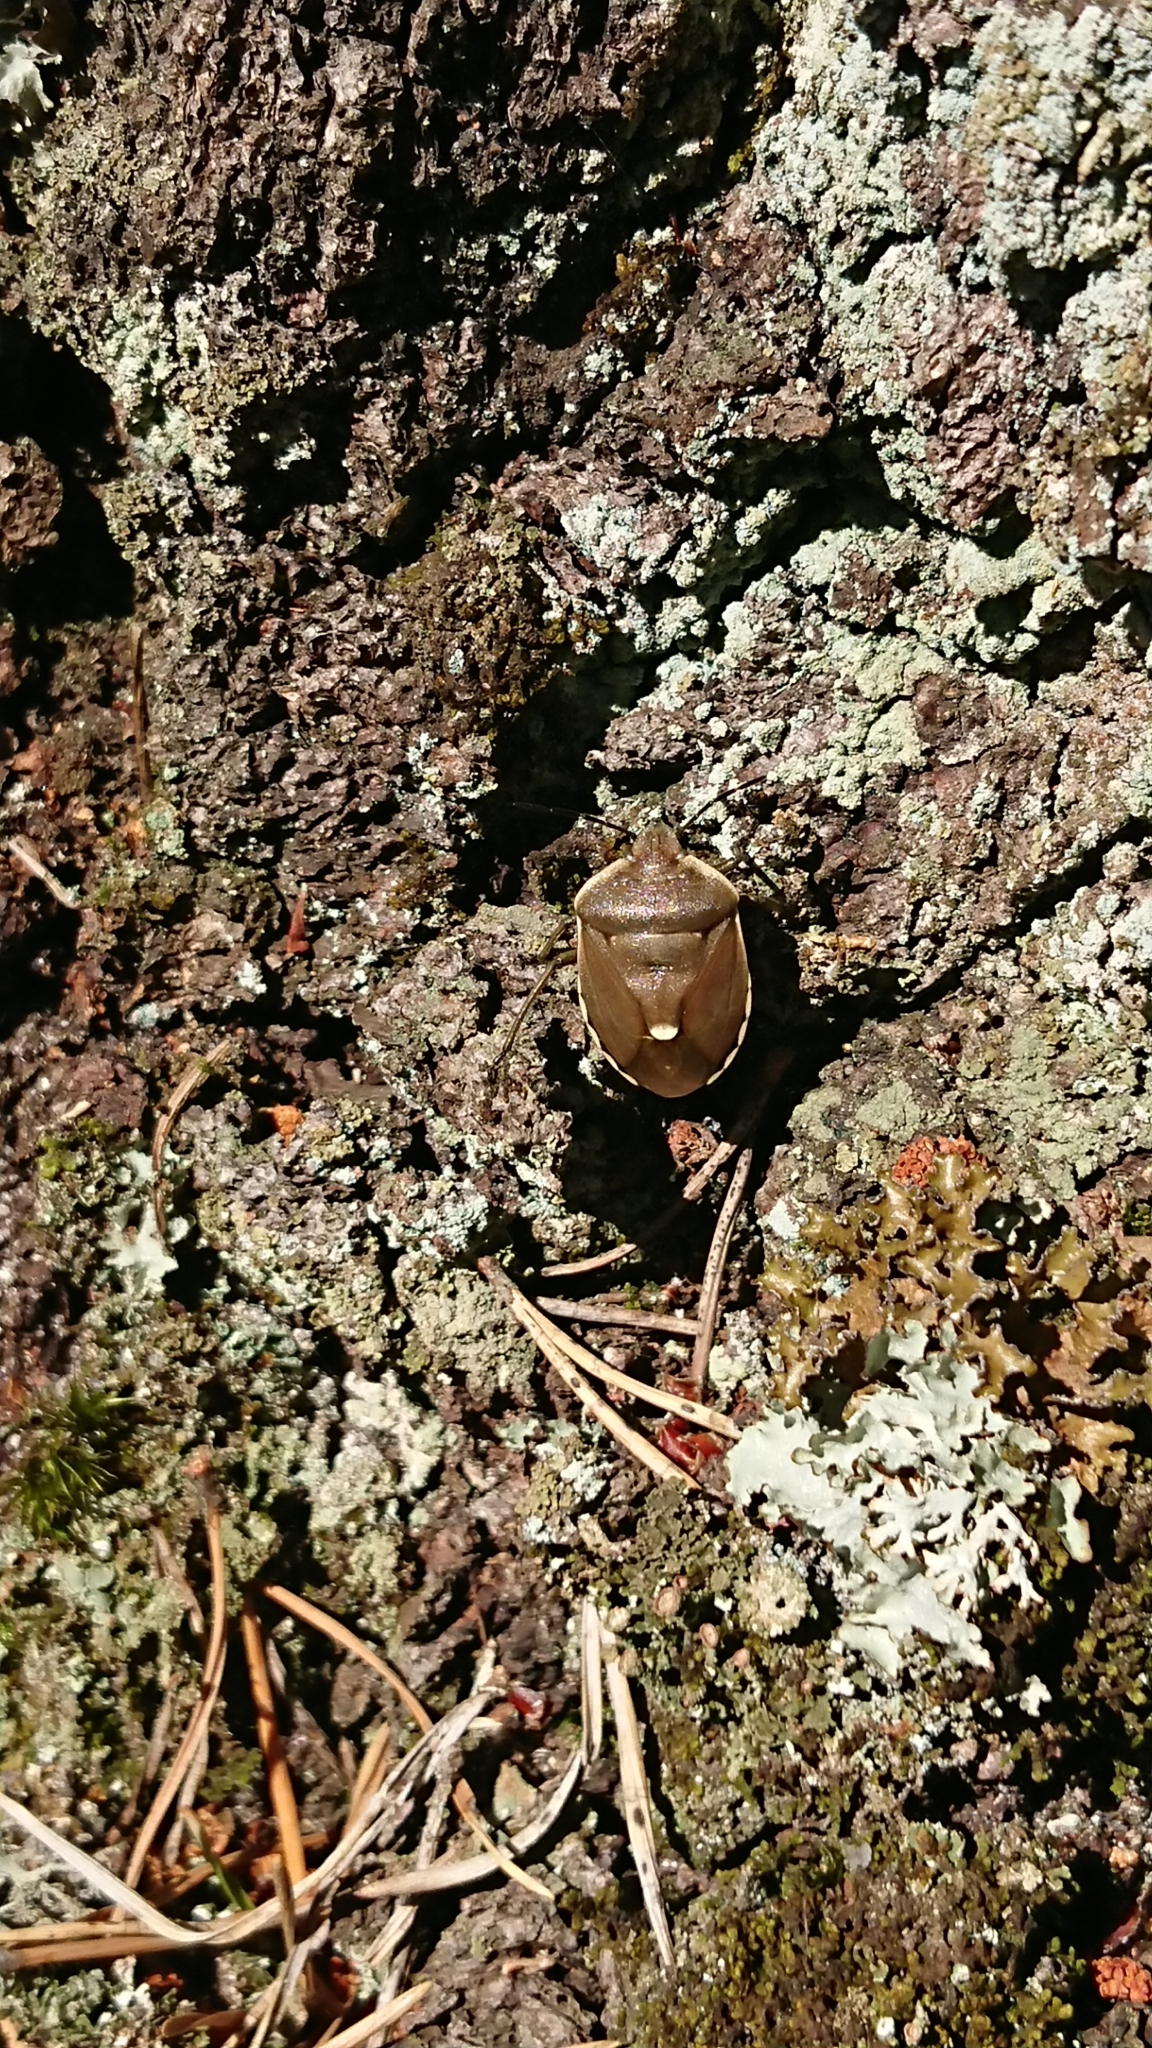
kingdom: Animalia
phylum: Arthropoda
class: Insecta
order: Hemiptera
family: Pentatomidae
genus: Chlorochroa
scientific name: Chlorochroa pinicola
